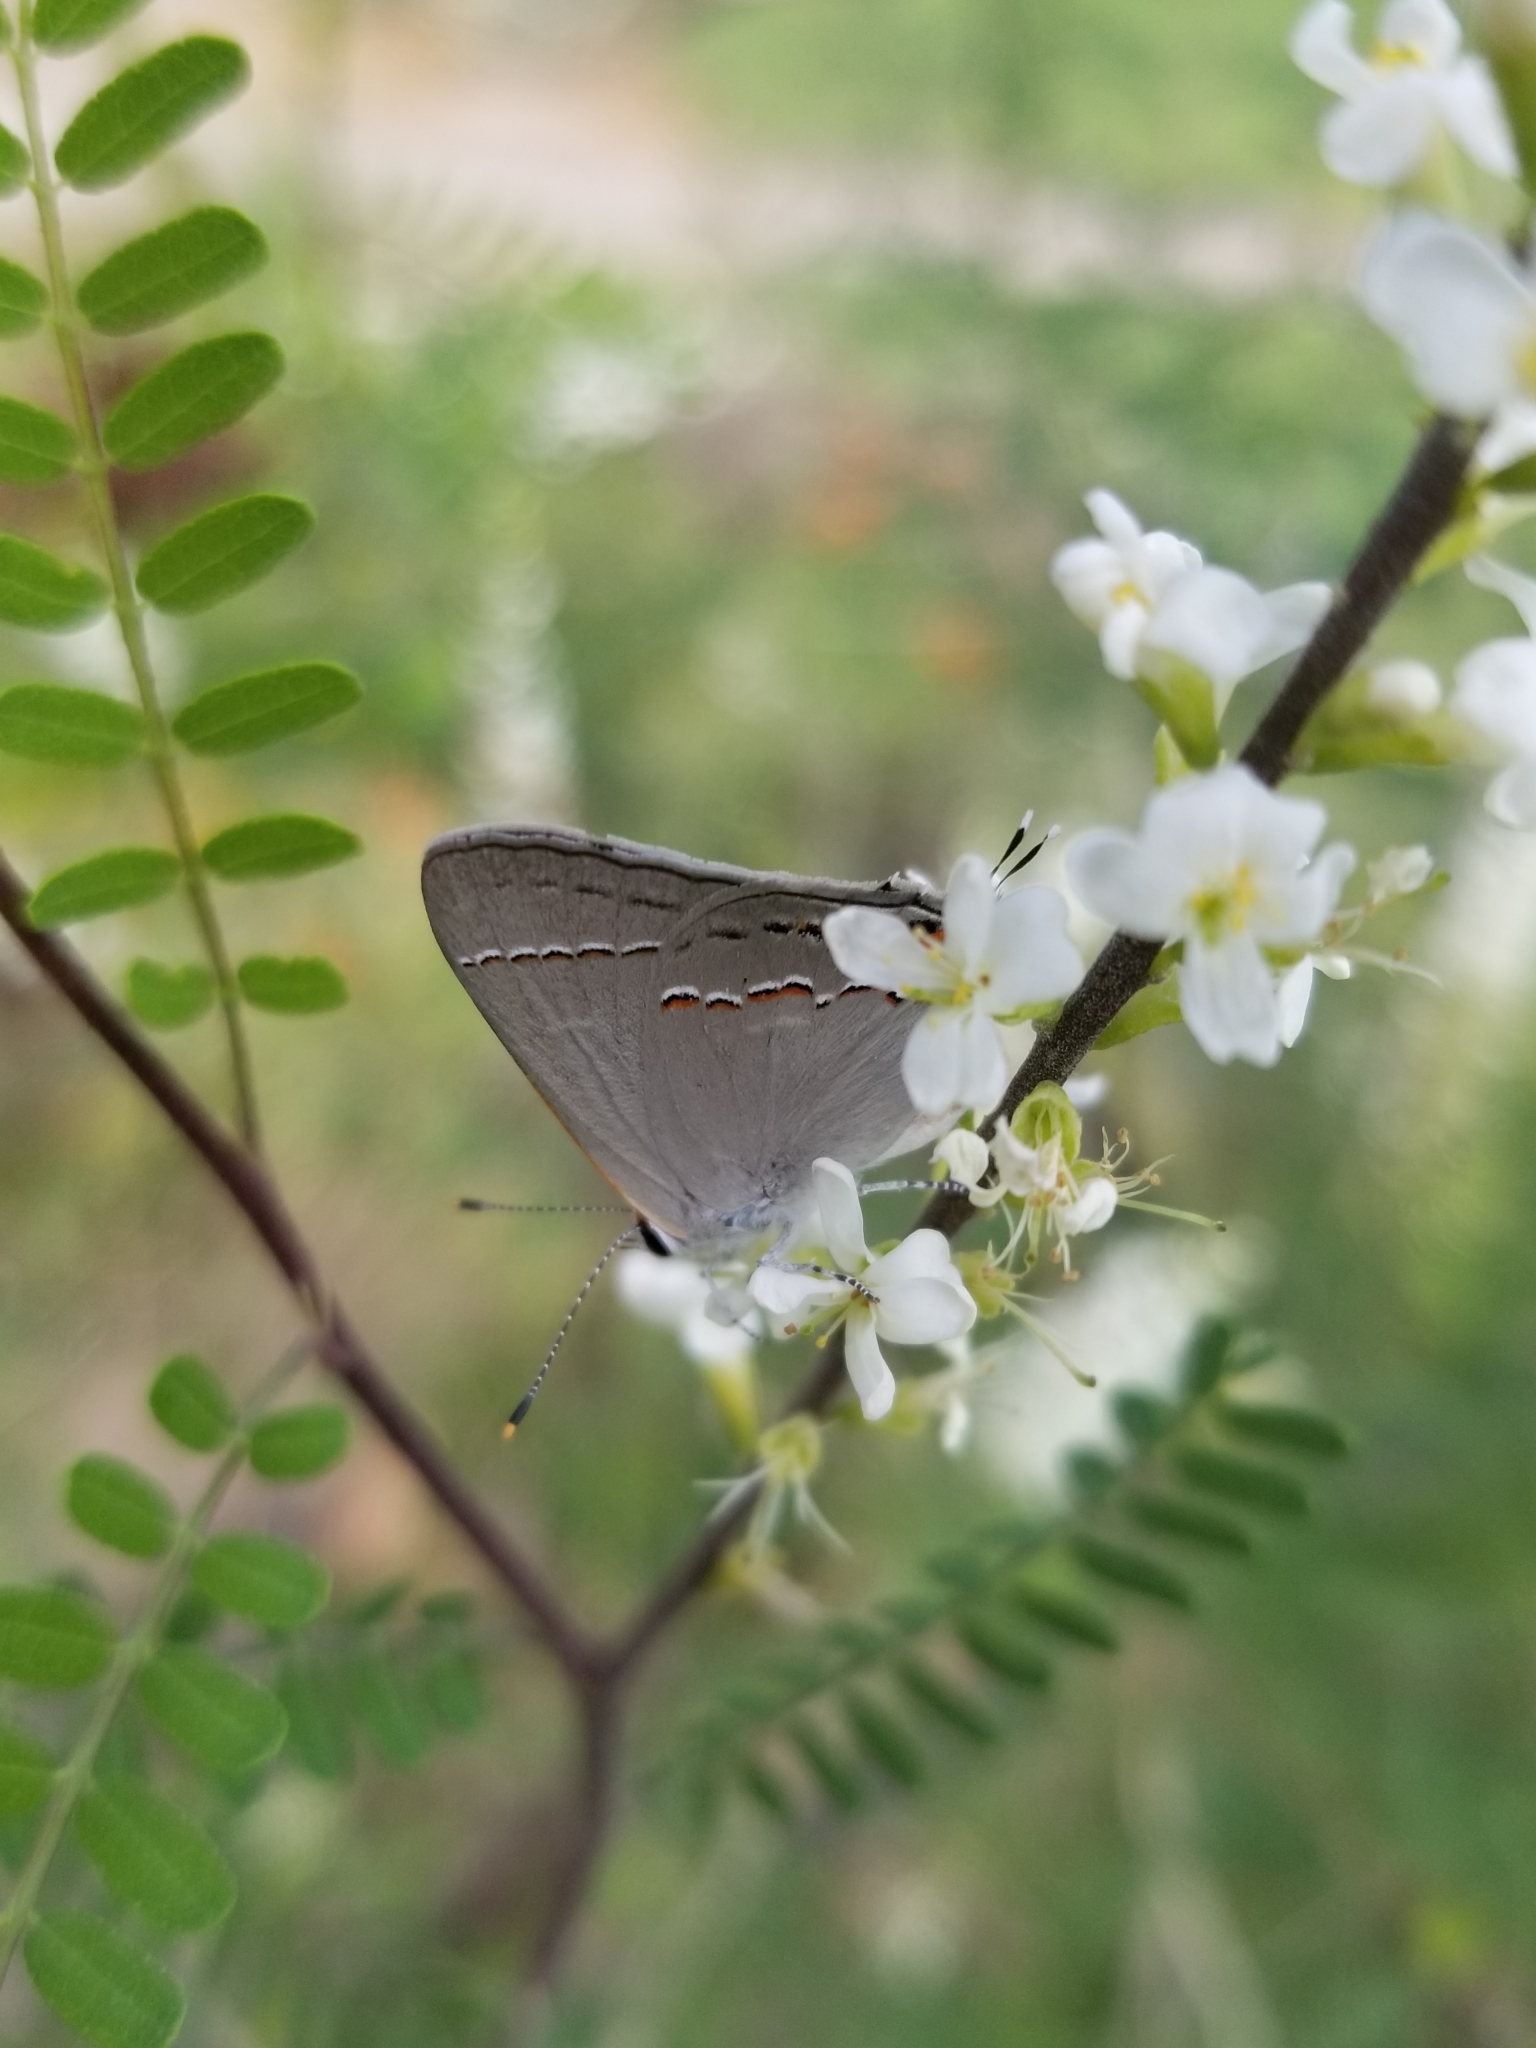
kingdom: Animalia
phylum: Arthropoda
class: Insecta
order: Lepidoptera
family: Lycaenidae
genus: Strymon
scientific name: Strymon melinus
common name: Gray hairstreak
